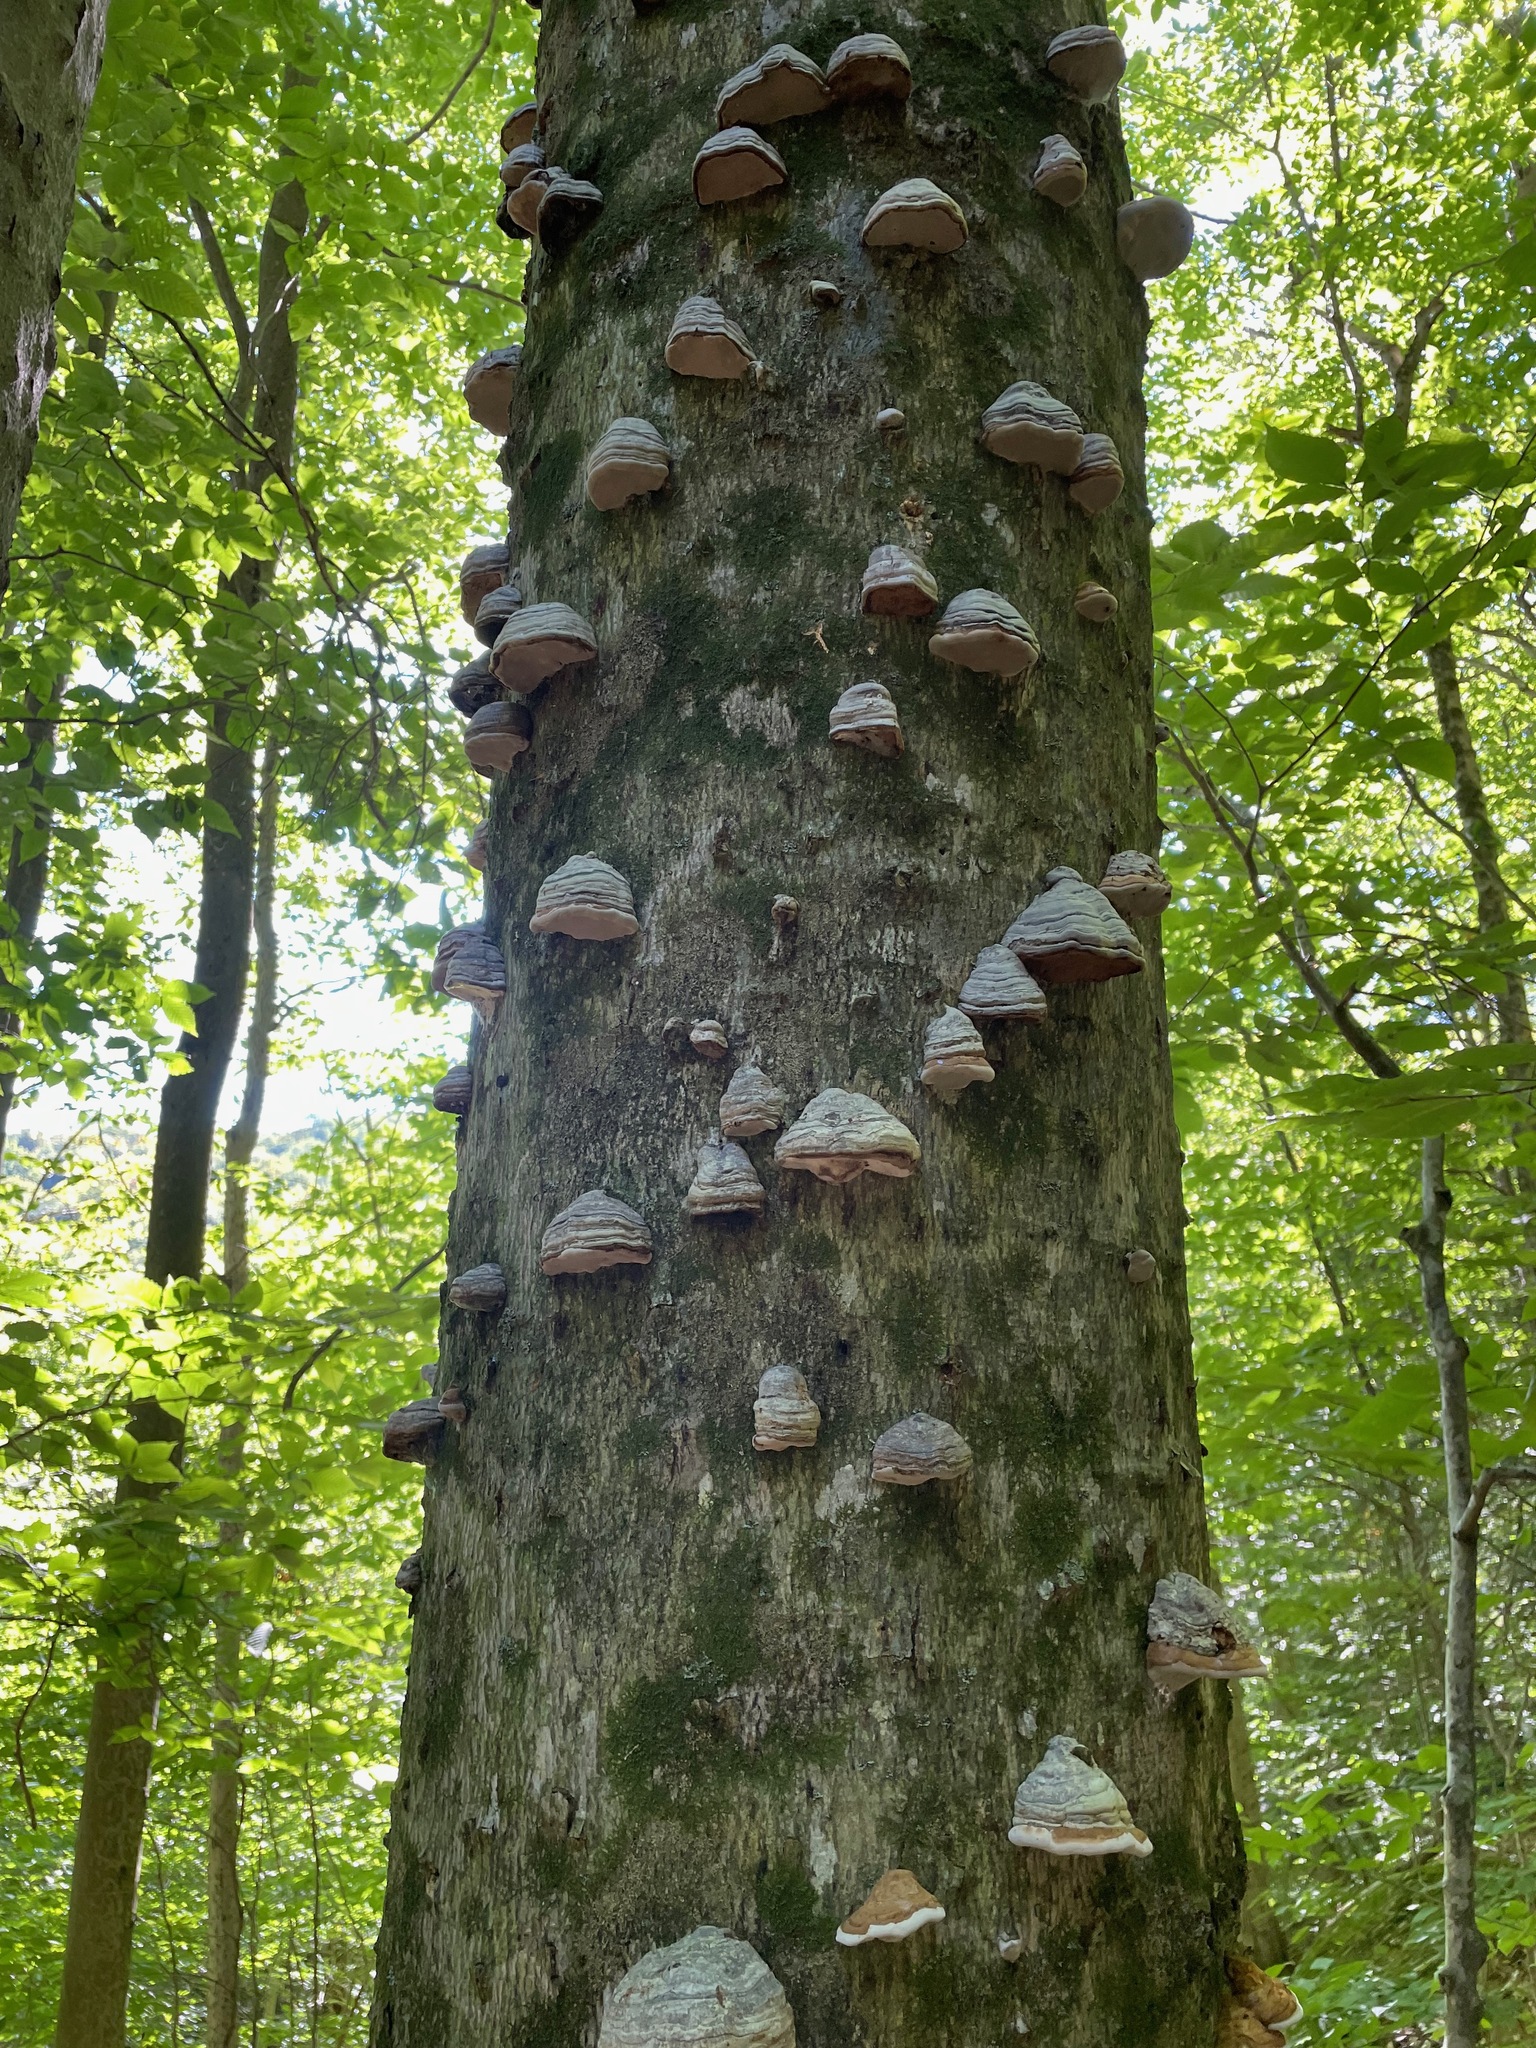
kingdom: Fungi
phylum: Basidiomycota
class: Agaricomycetes
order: Polyporales
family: Polyporaceae
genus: Fomes
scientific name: Fomes fomentarius
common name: Hoof fungus
